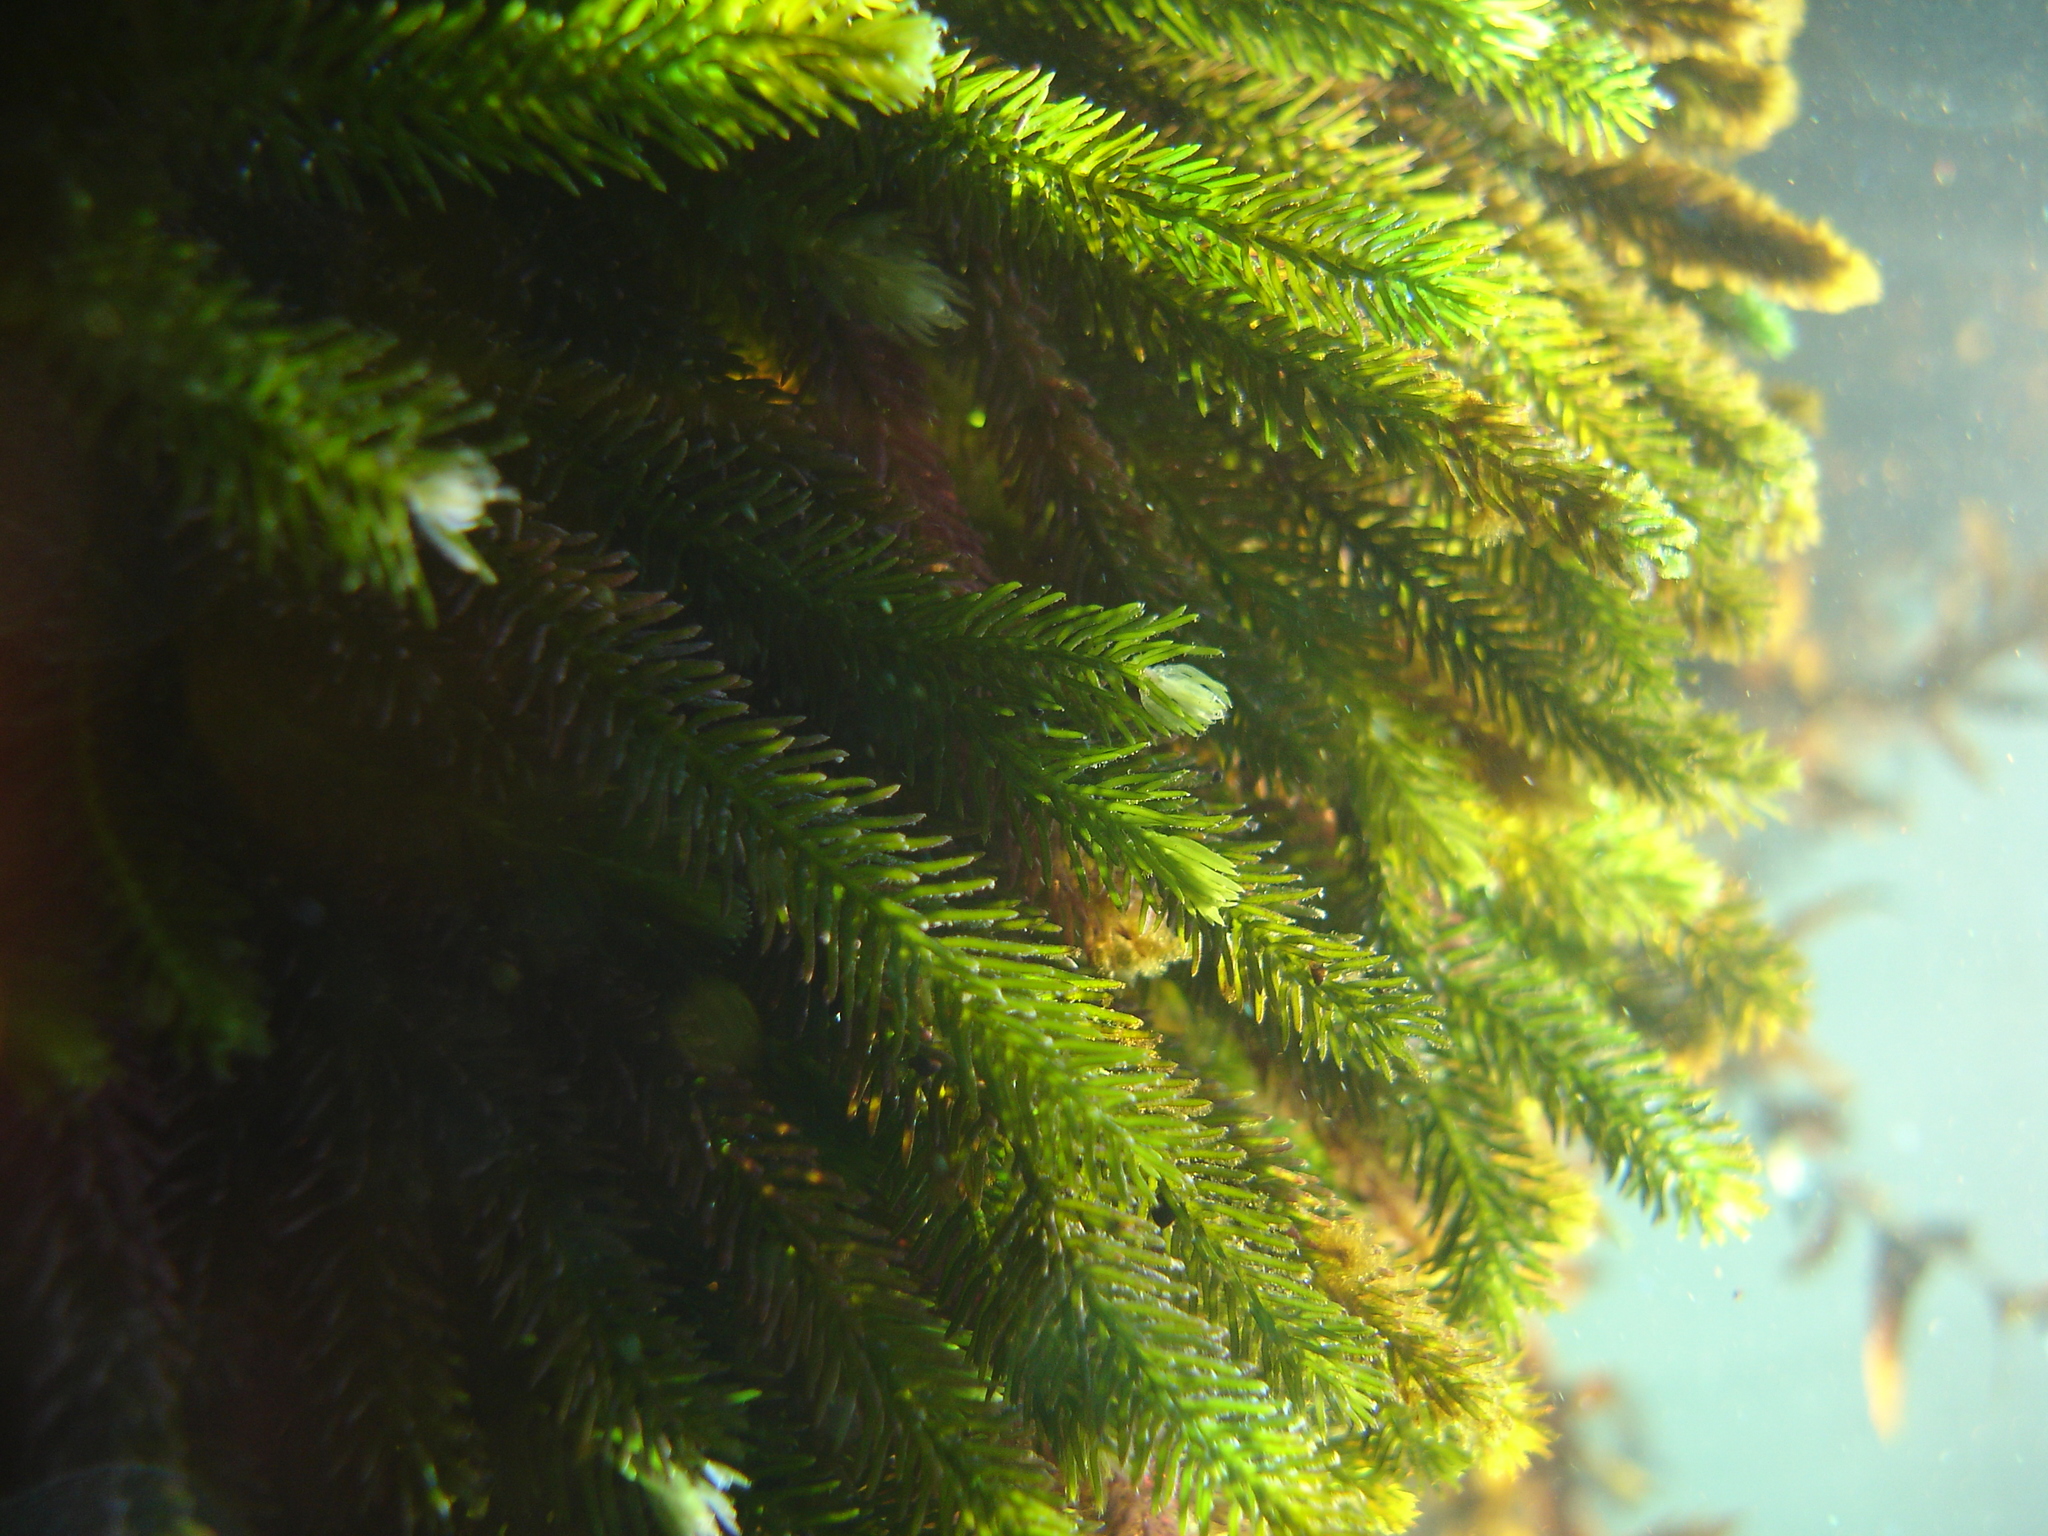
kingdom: Plantae
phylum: Chlorophyta
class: Ulvophyceae
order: Bryopsidales
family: Caulerpaceae
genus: Caulerpa
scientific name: Caulerpa brownii
